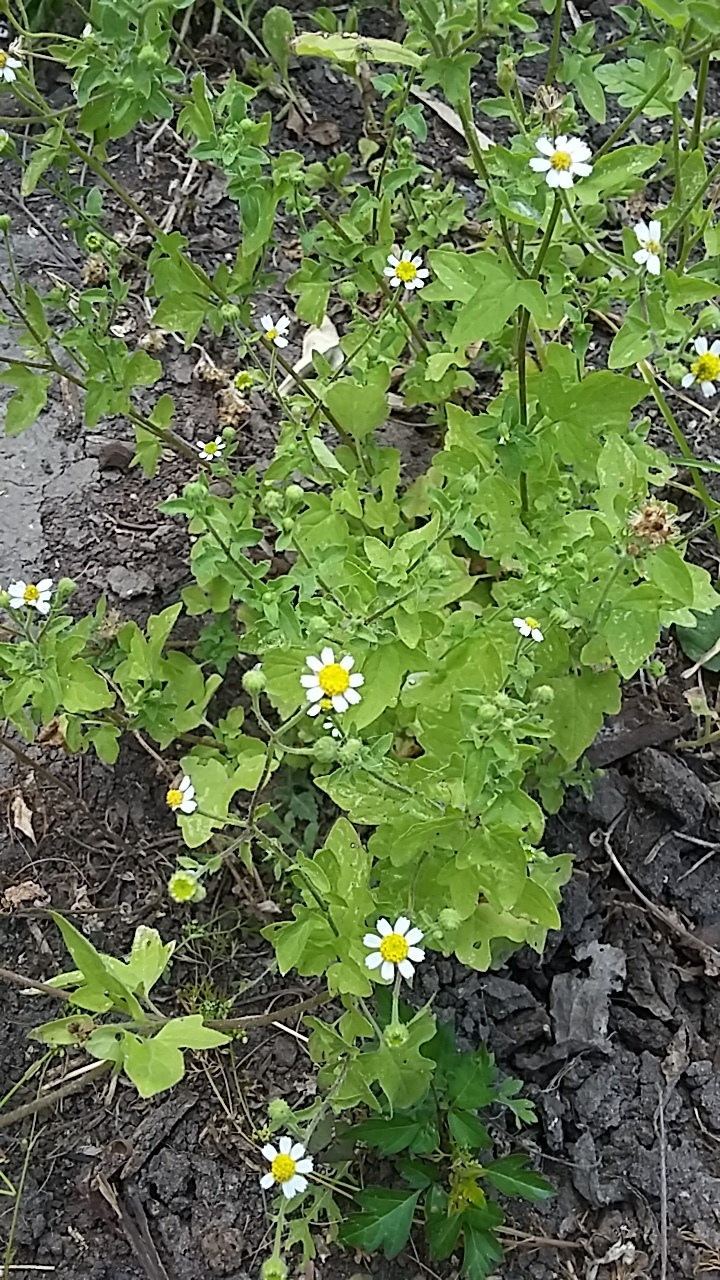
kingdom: Plantae
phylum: Tracheophyta
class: Magnoliopsida
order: Asterales
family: Asteraceae
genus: Galinsogeopsis
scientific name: Galinsogeopsis spilanthoides
